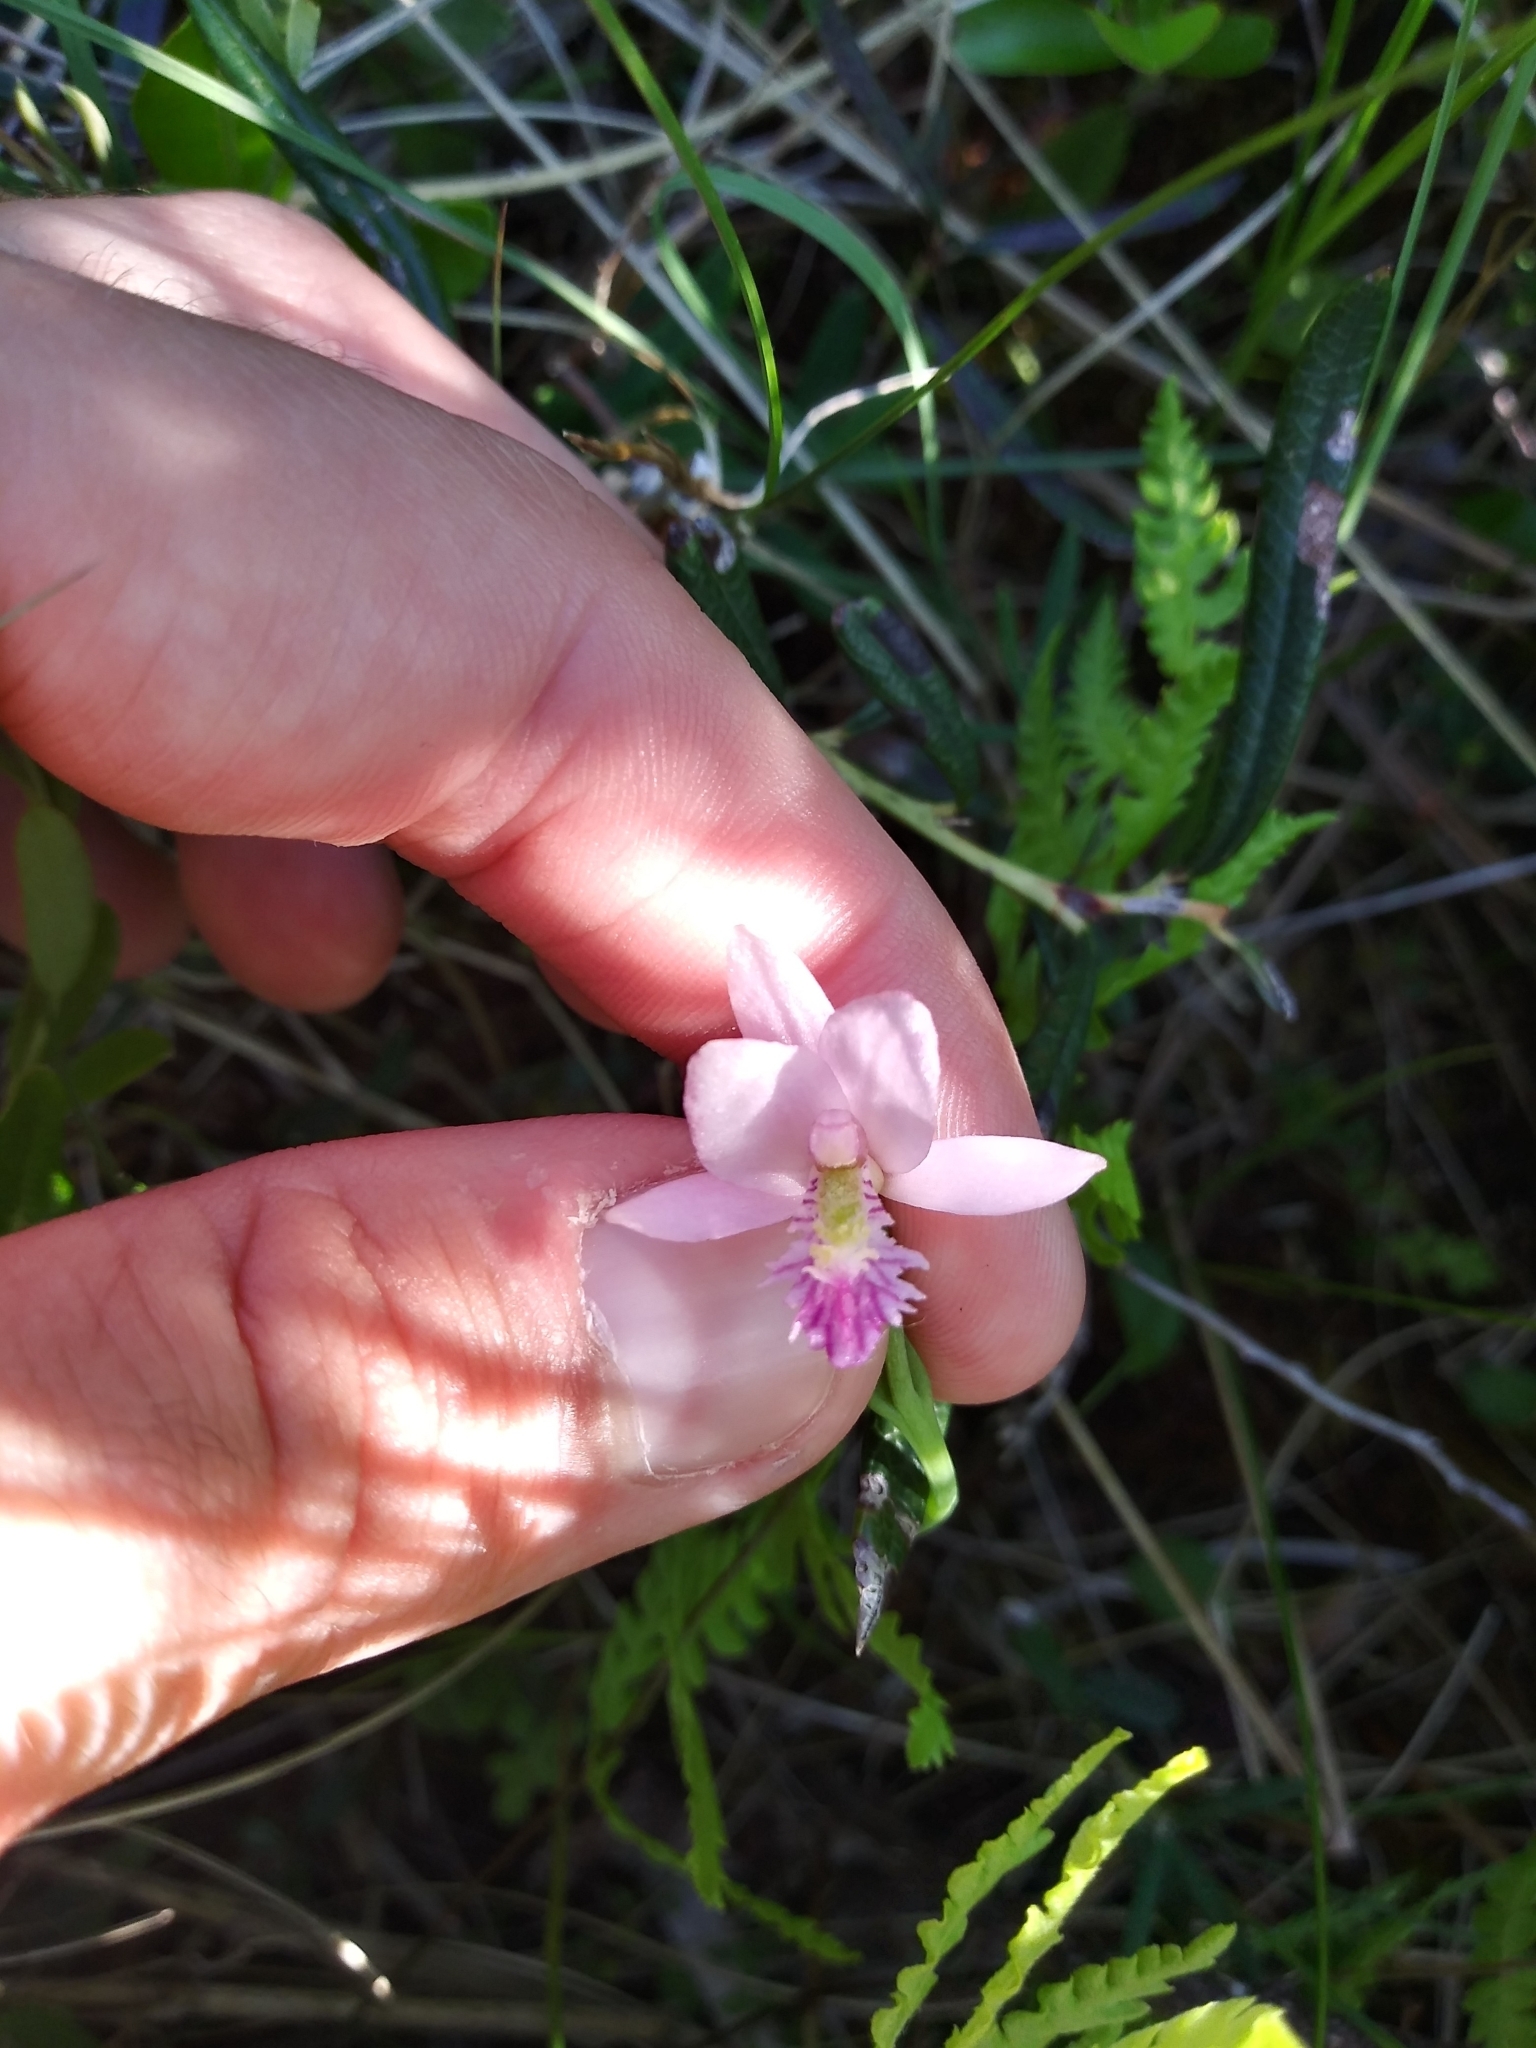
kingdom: Plantae
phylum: Tracheophyta
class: Liliopsida
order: Asparagales
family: Orchidaceae
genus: Pogonia
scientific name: Pogonia ophioglossoides
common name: Rose pogonia
